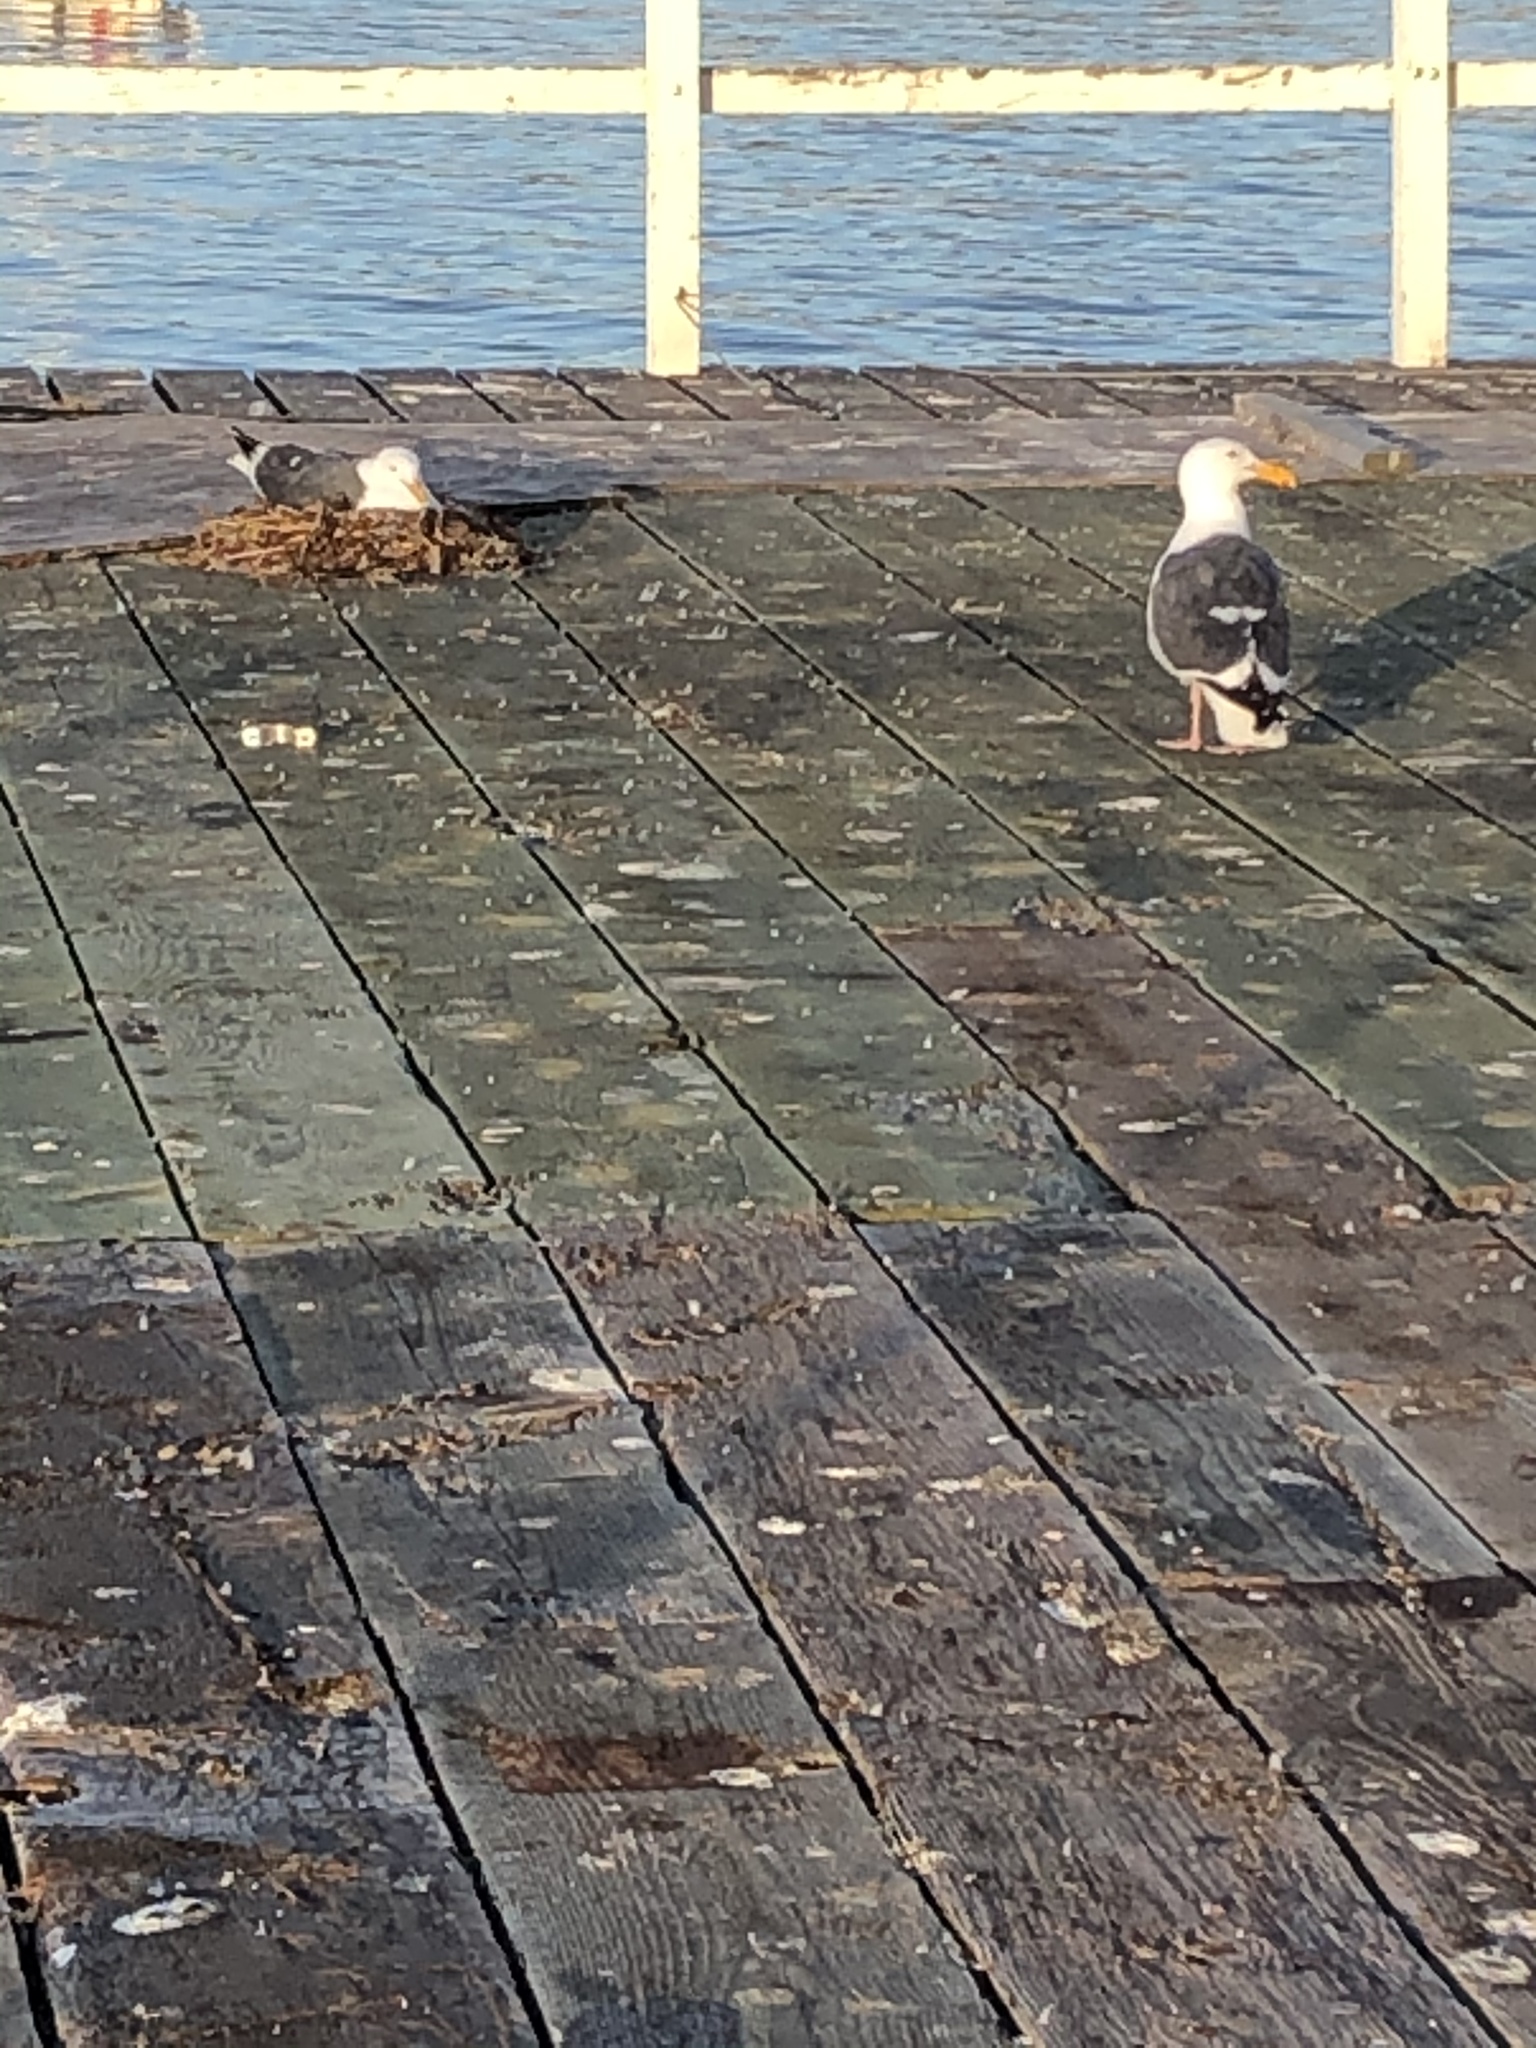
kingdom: Animalia
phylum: Chordata
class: Aves
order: Charadriiformes
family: Laridae
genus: Larus
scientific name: Larus occidentalis
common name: Western gull
